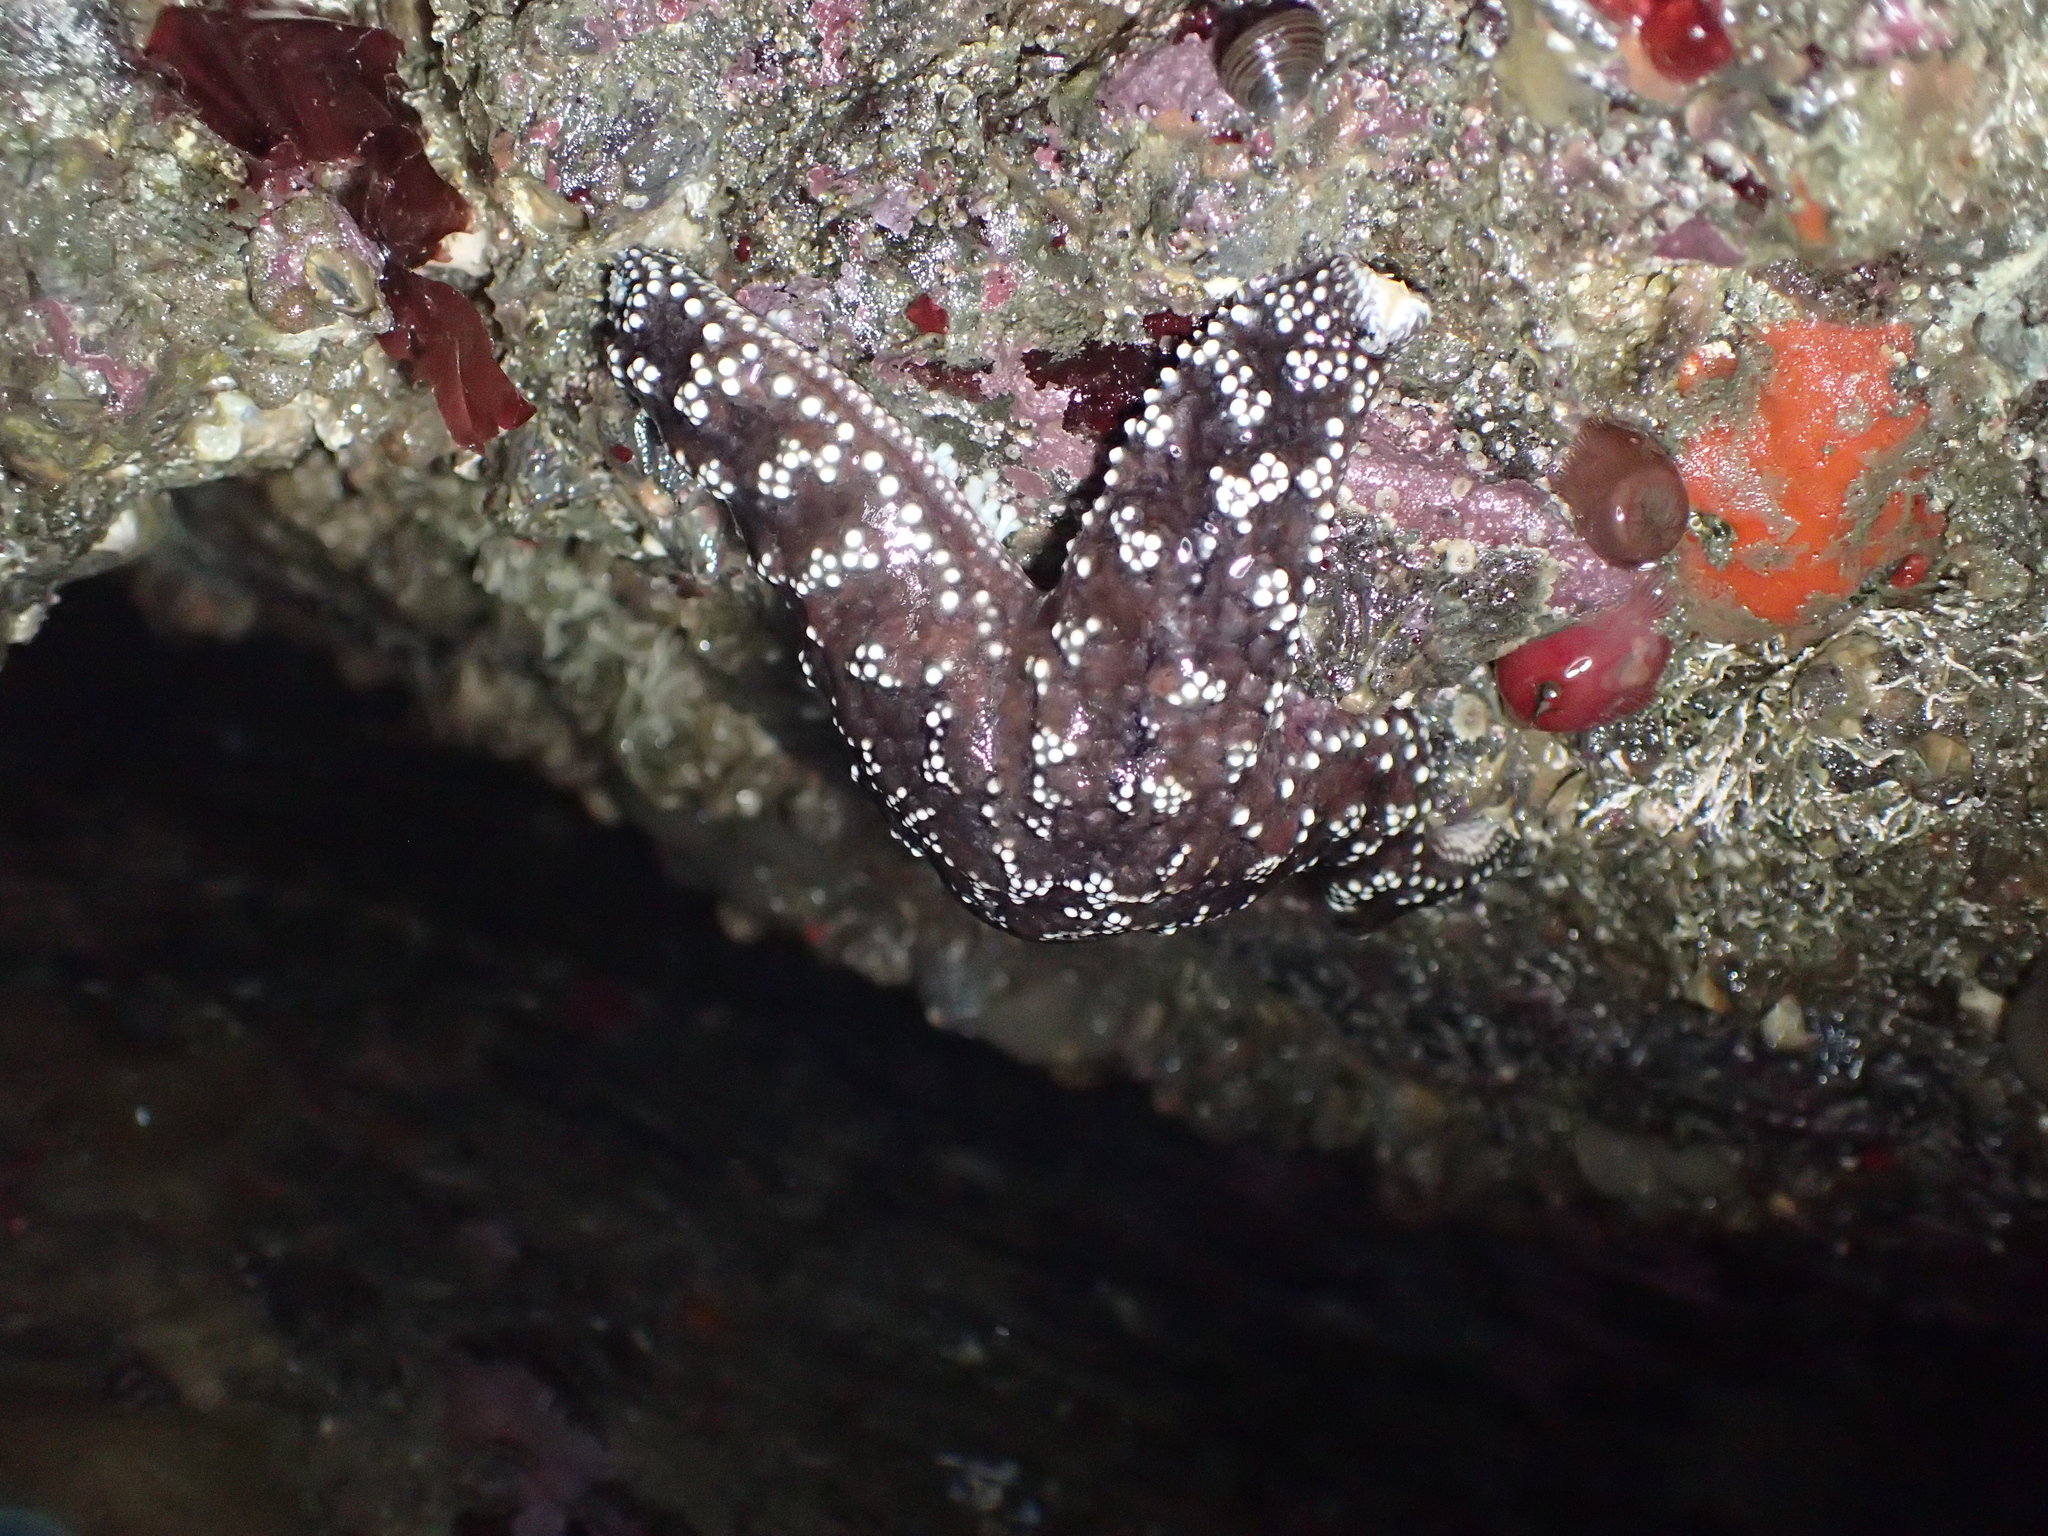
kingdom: Animalia
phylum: Echinodermata
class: Asteroidea
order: Forcipulatida
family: Asteriidae
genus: Pisaster
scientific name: Pisaster ochraceus
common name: Ochre stars
